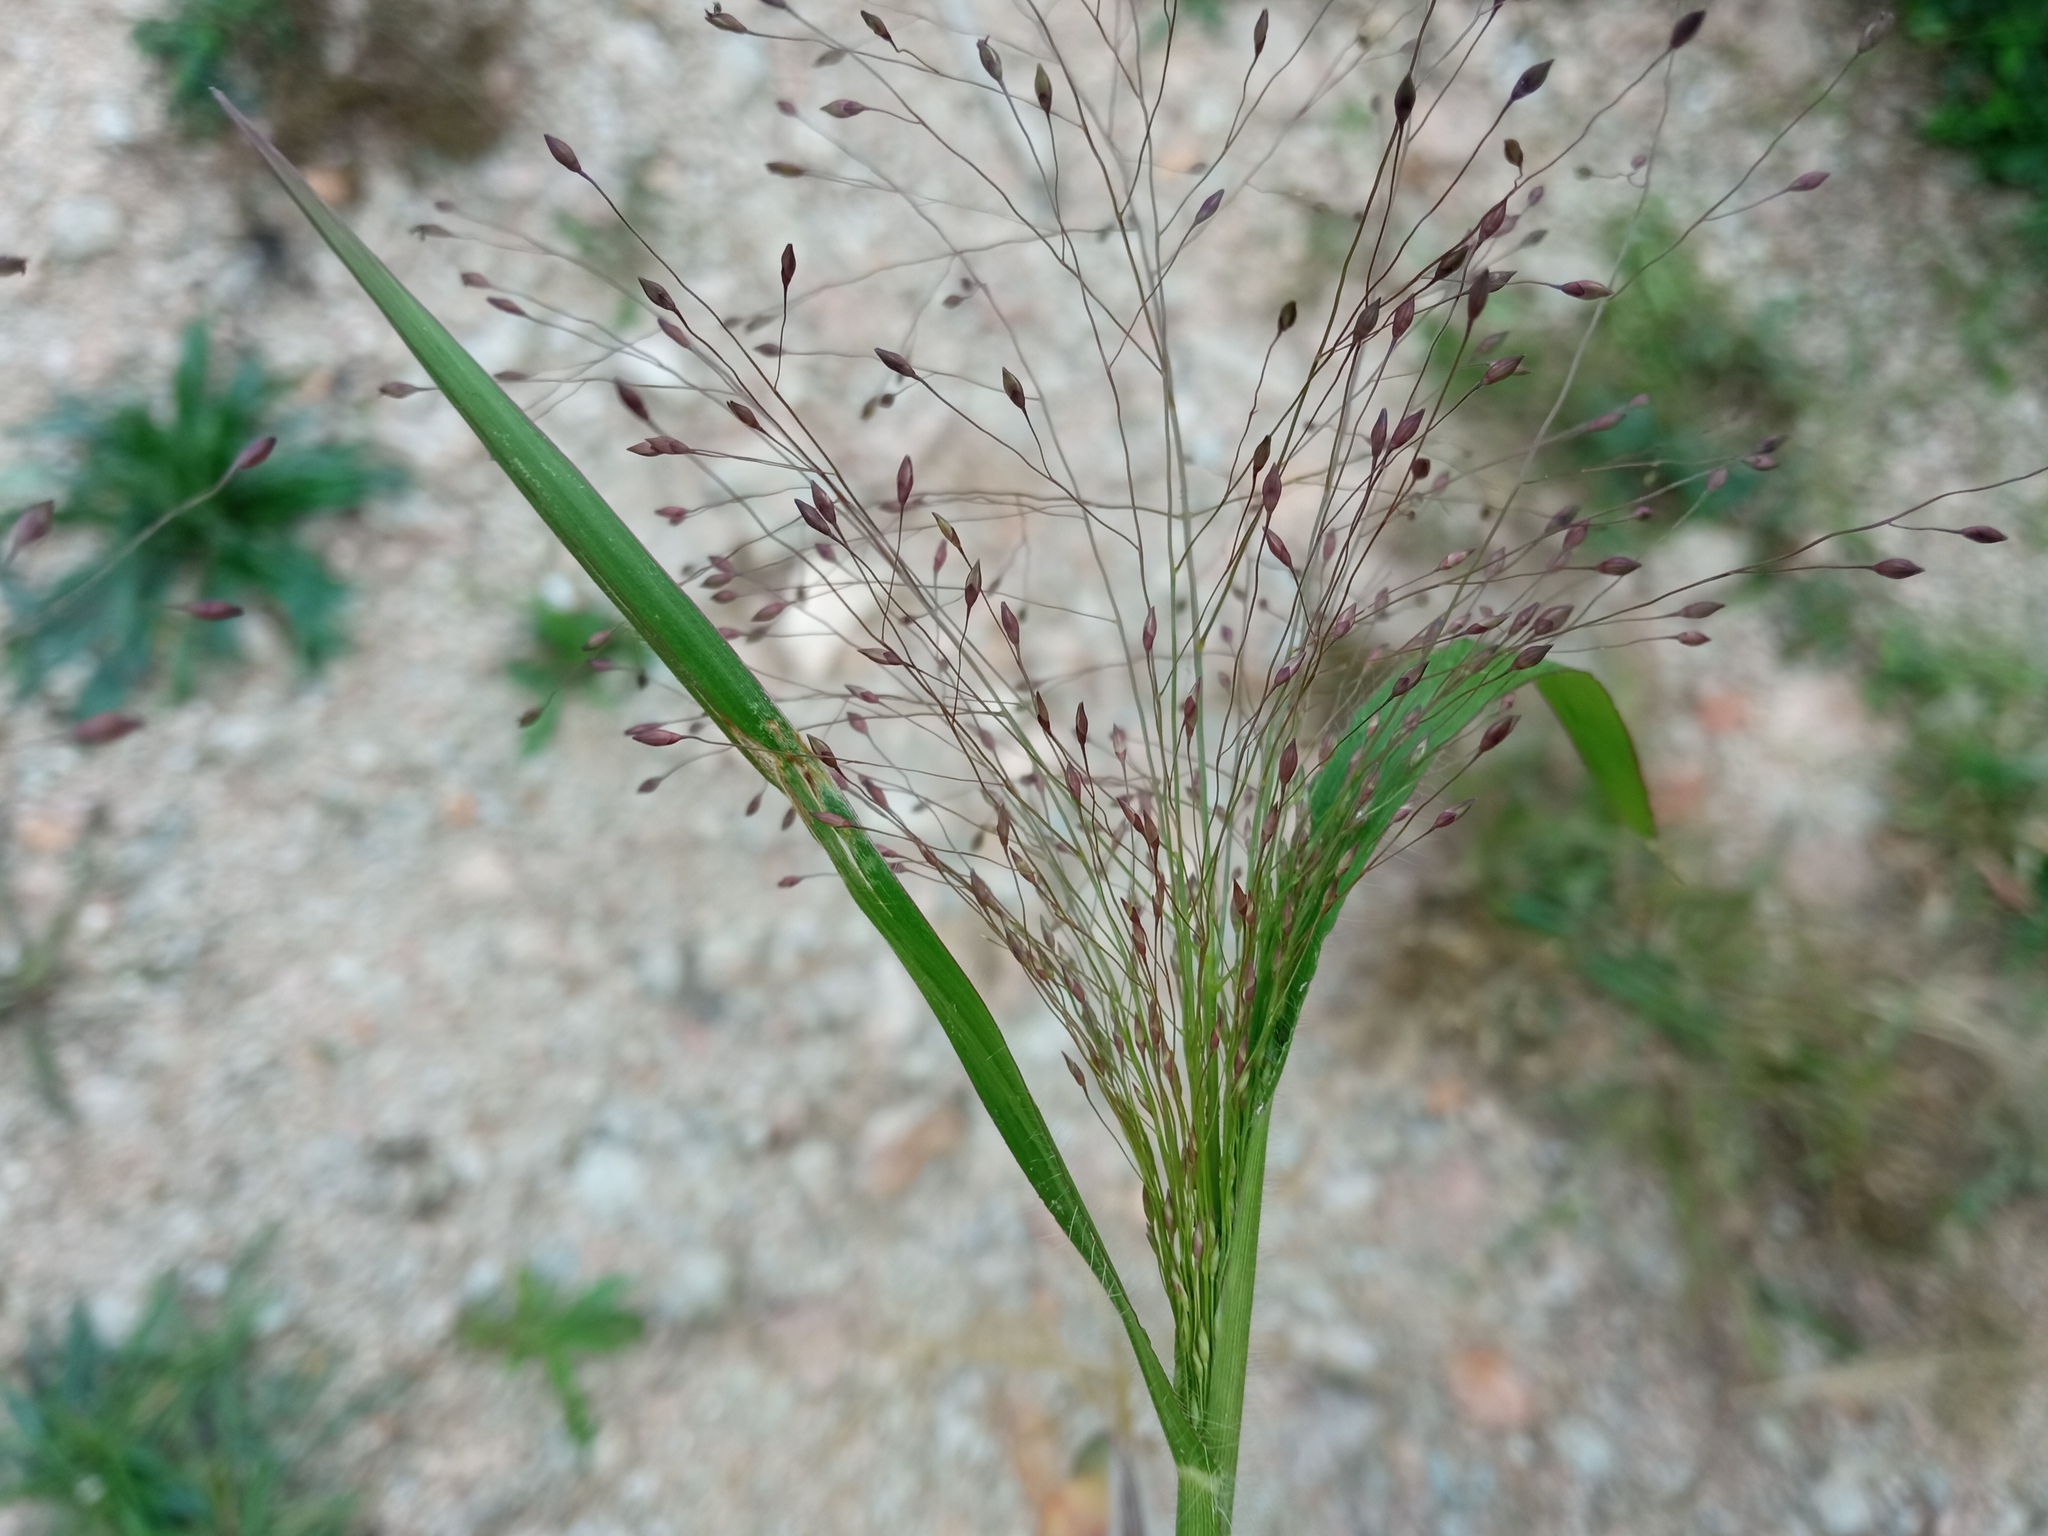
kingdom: Plantae
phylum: Tracheophyta
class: Liliopsida
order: Poales
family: Poaceae
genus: Panicum
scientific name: Panicum capillare
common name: Witch-grass
